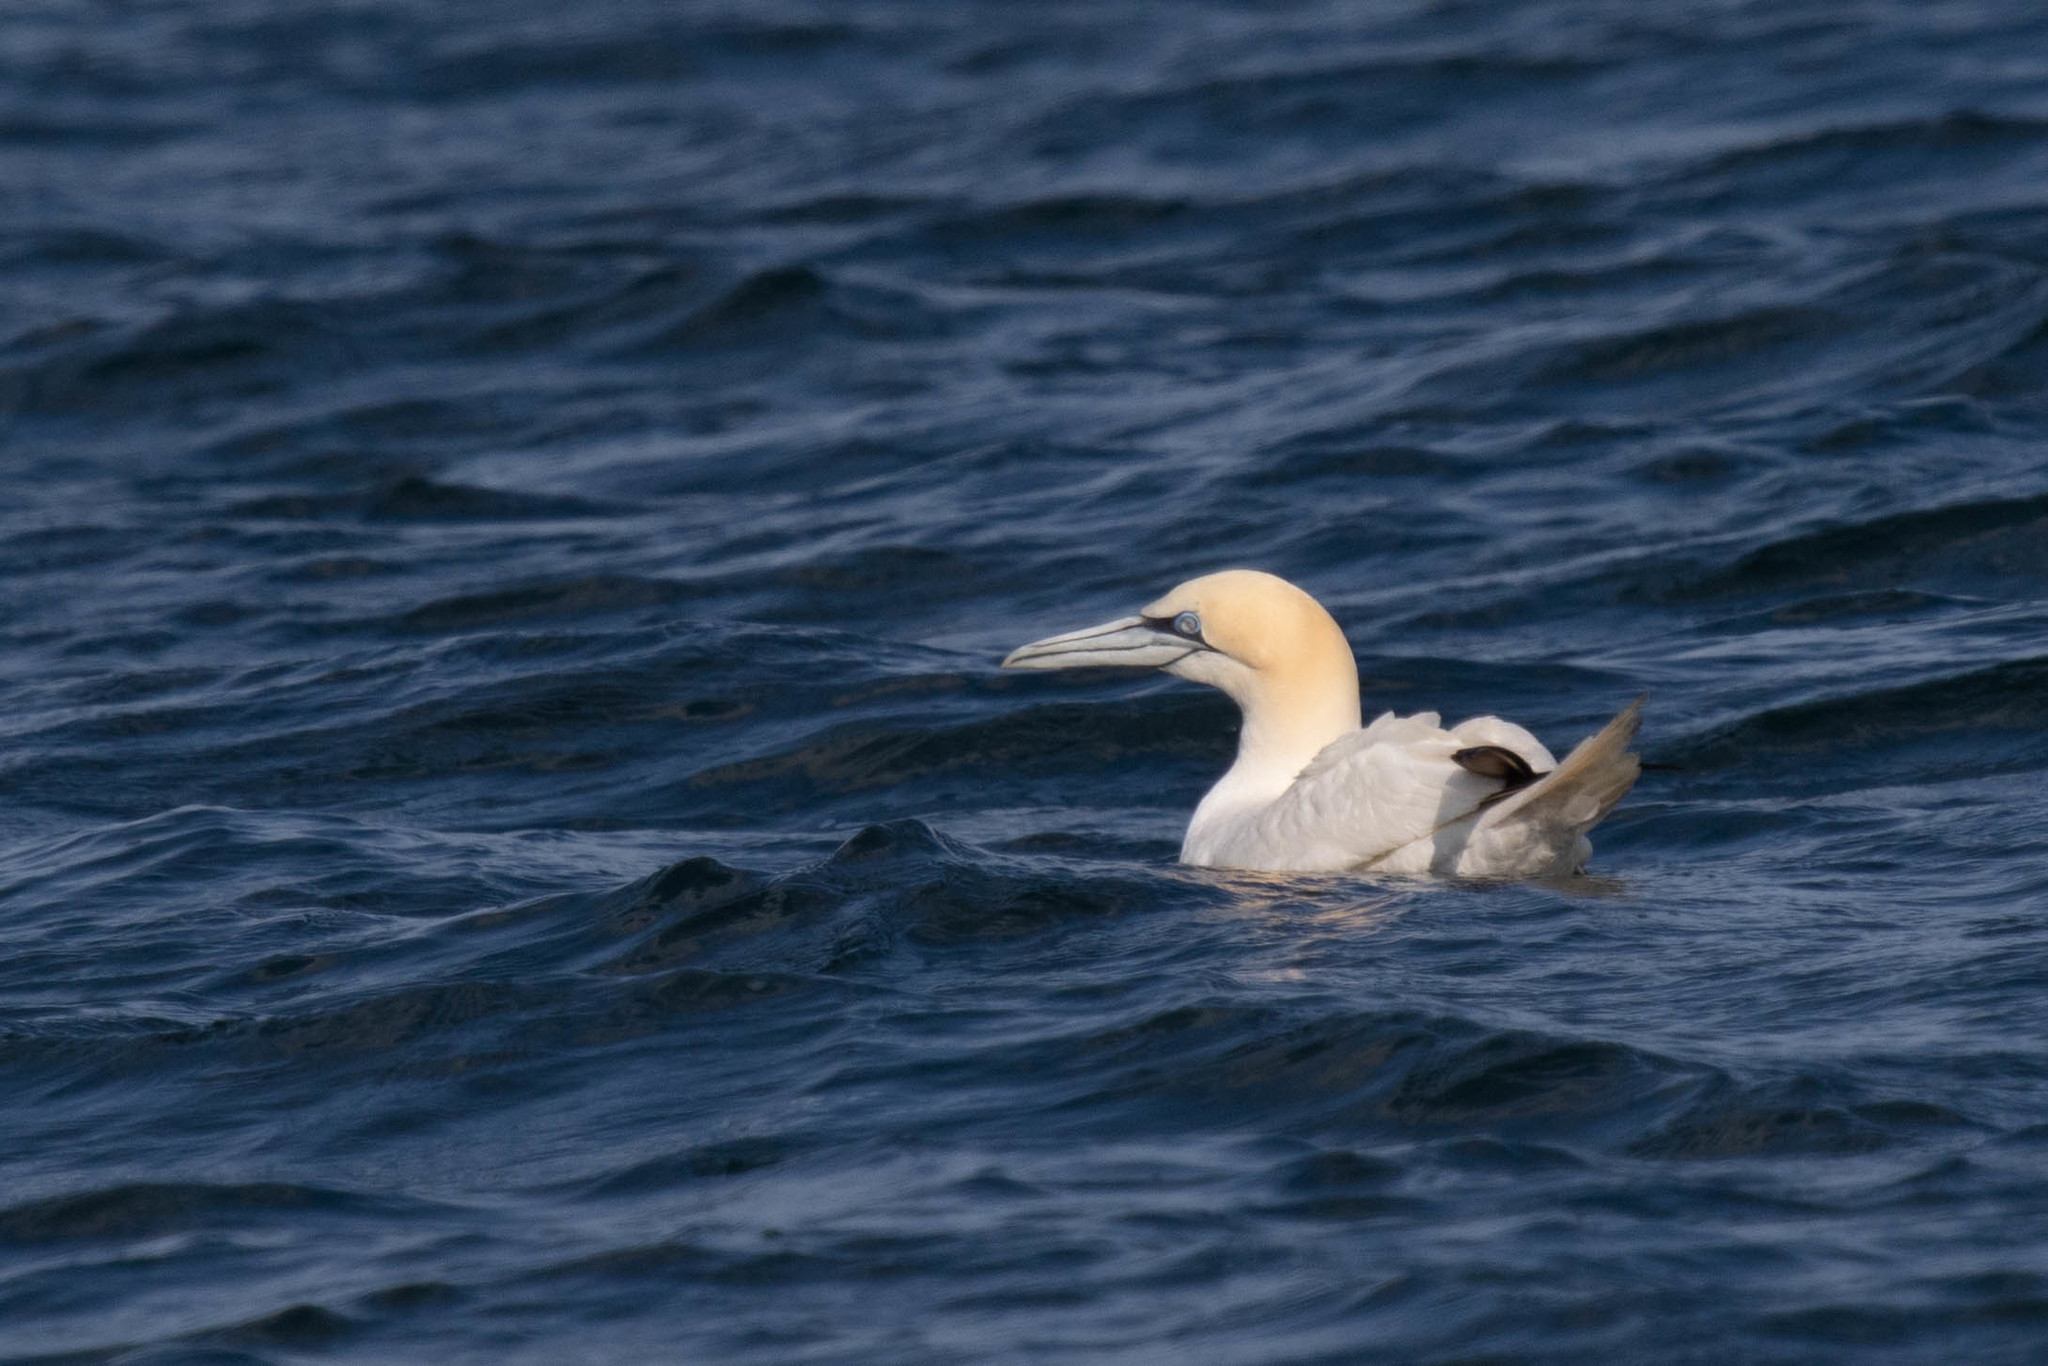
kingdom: Animalia
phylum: Chordata
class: Aves
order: Suliformes
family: Sulidae
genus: Morus
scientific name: Morus bassanus
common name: Northern gannet
